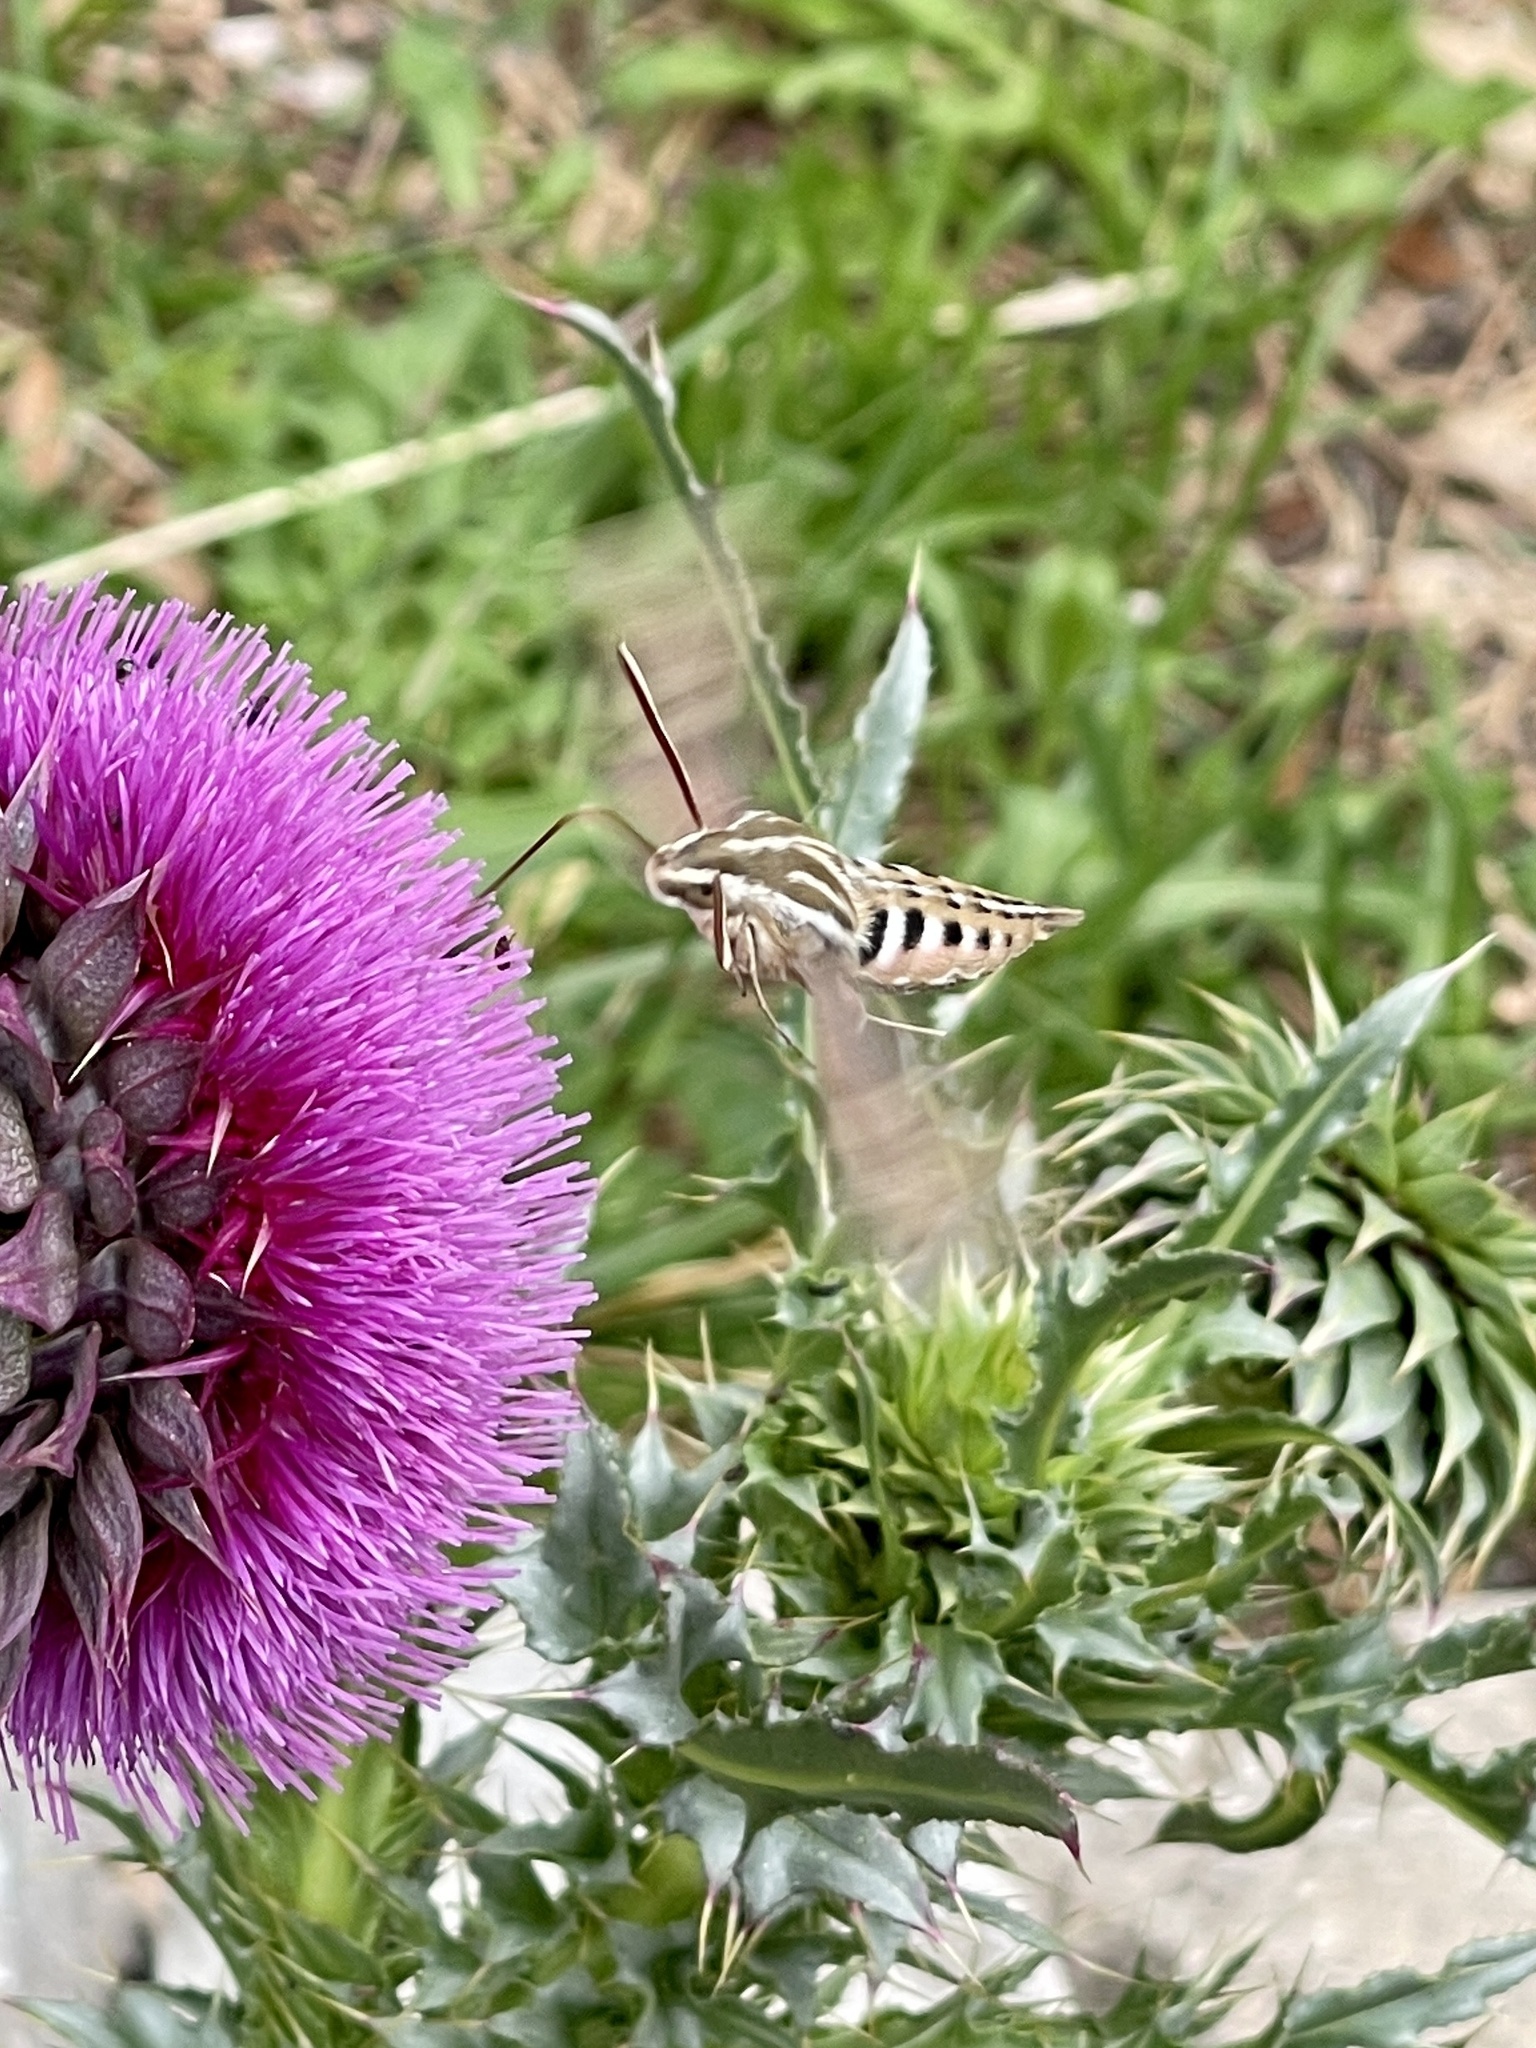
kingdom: Animalia
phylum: Arthropoda
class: Insecta
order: Lepidoptera
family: Sphingidae
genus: Hyles
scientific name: Hyles lineata
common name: White-lined sphinx
